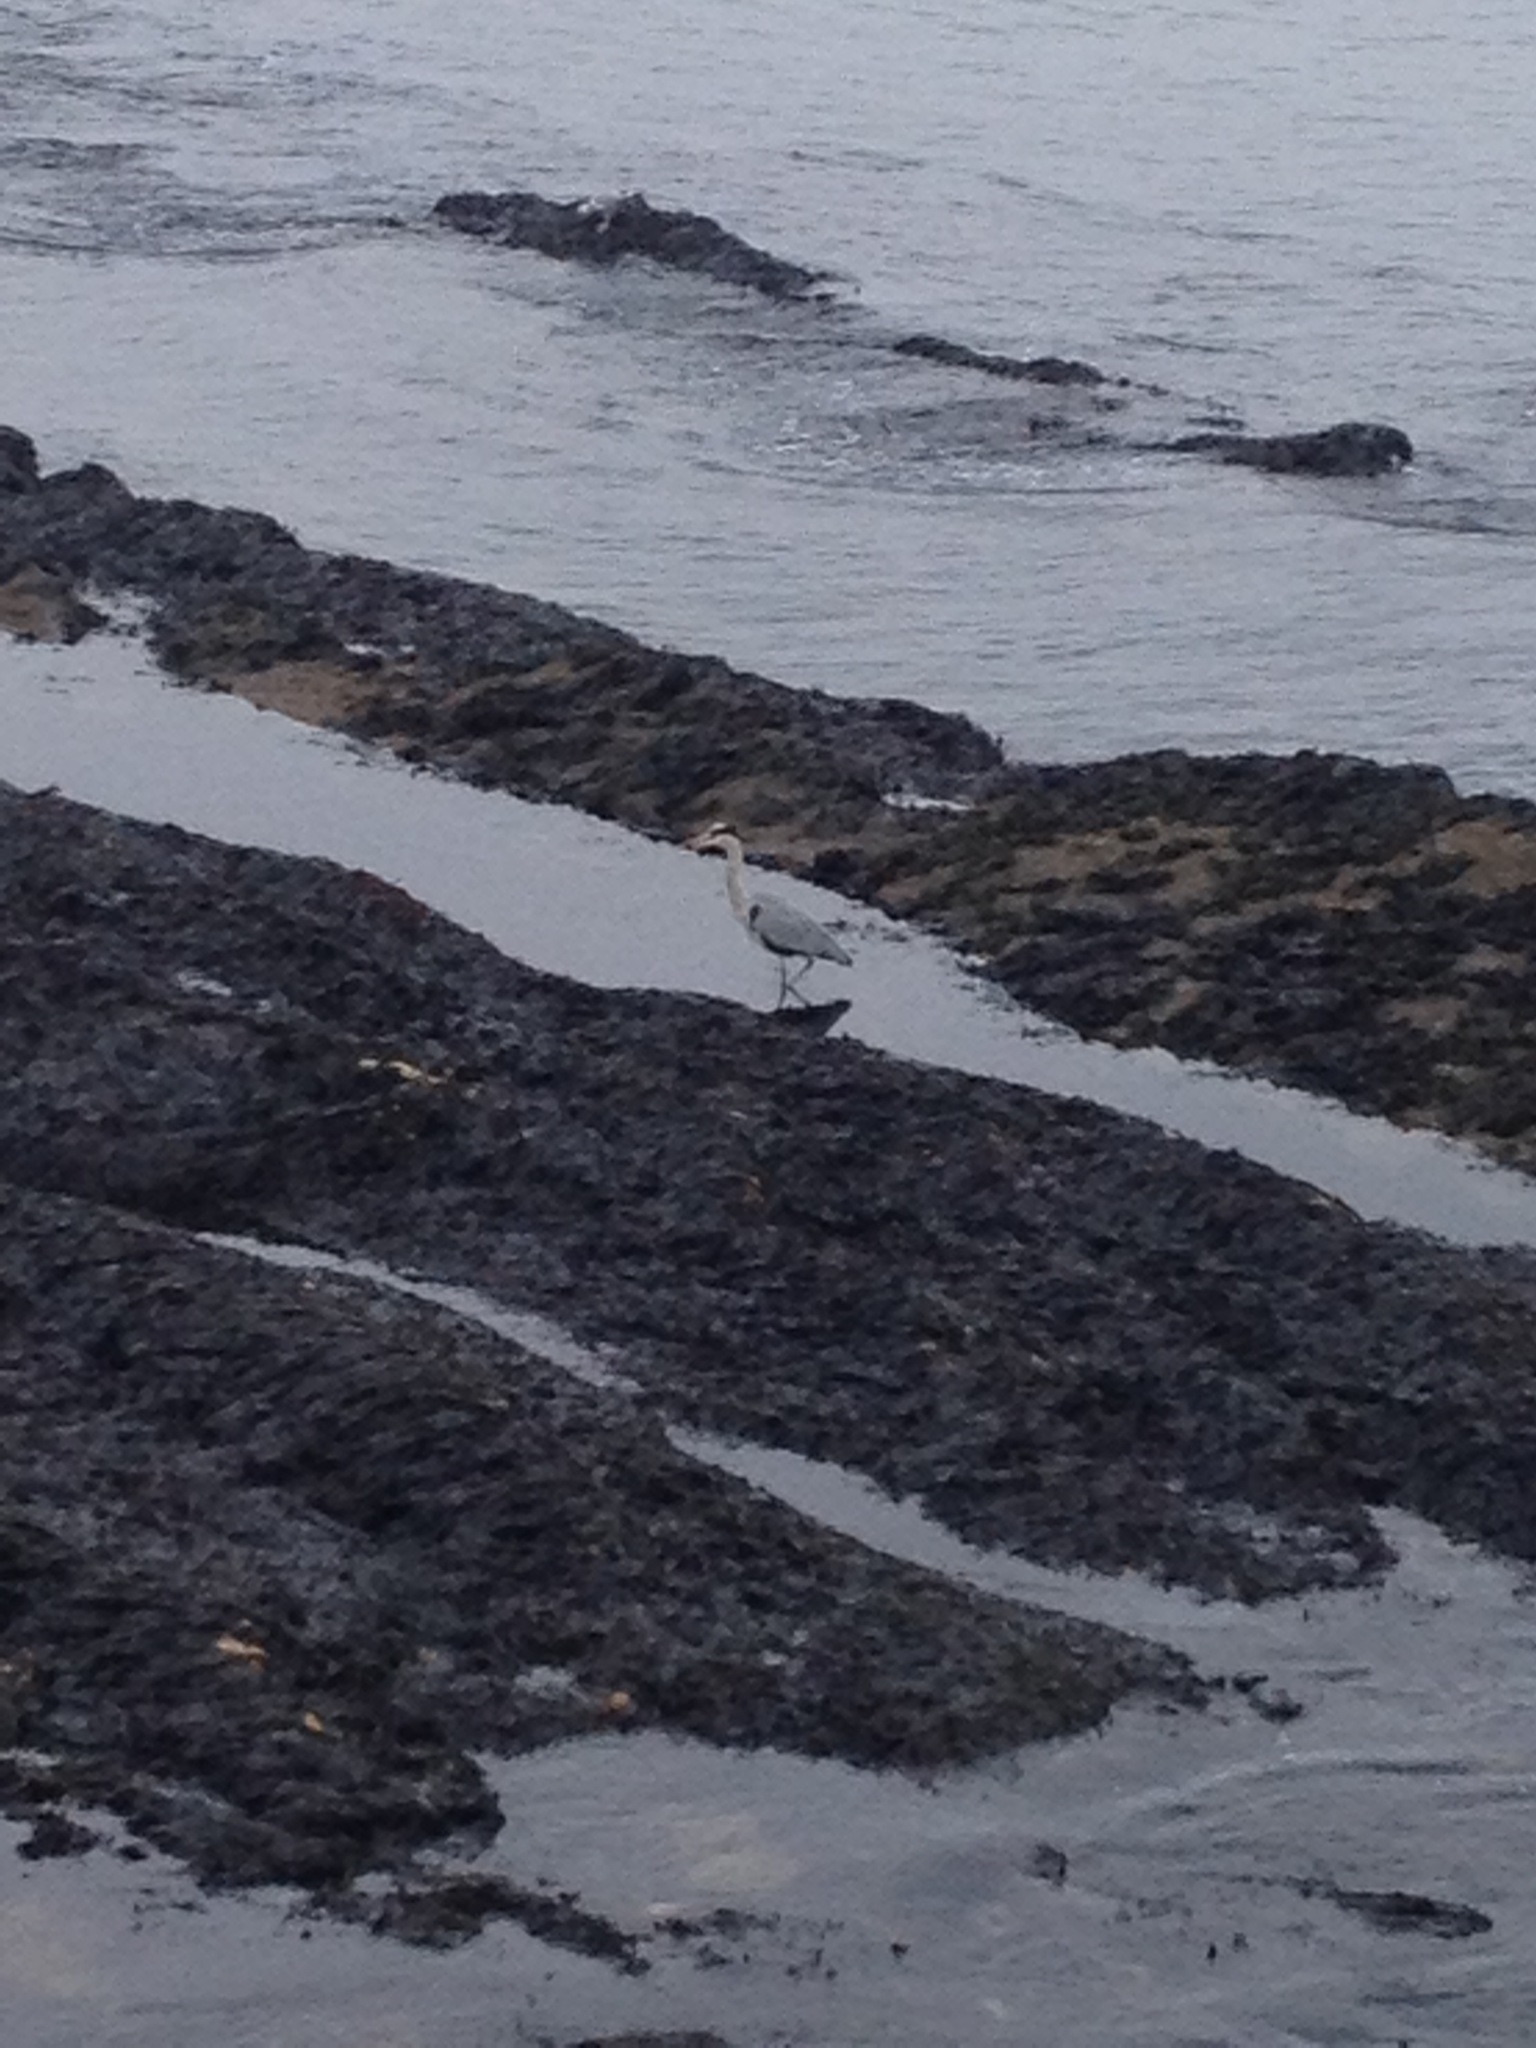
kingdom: Animalia
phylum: Chordata
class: Aves
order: Pelecaniformes
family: Ardeidae
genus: Ardea
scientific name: Ardea cinerea
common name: Grey heron
